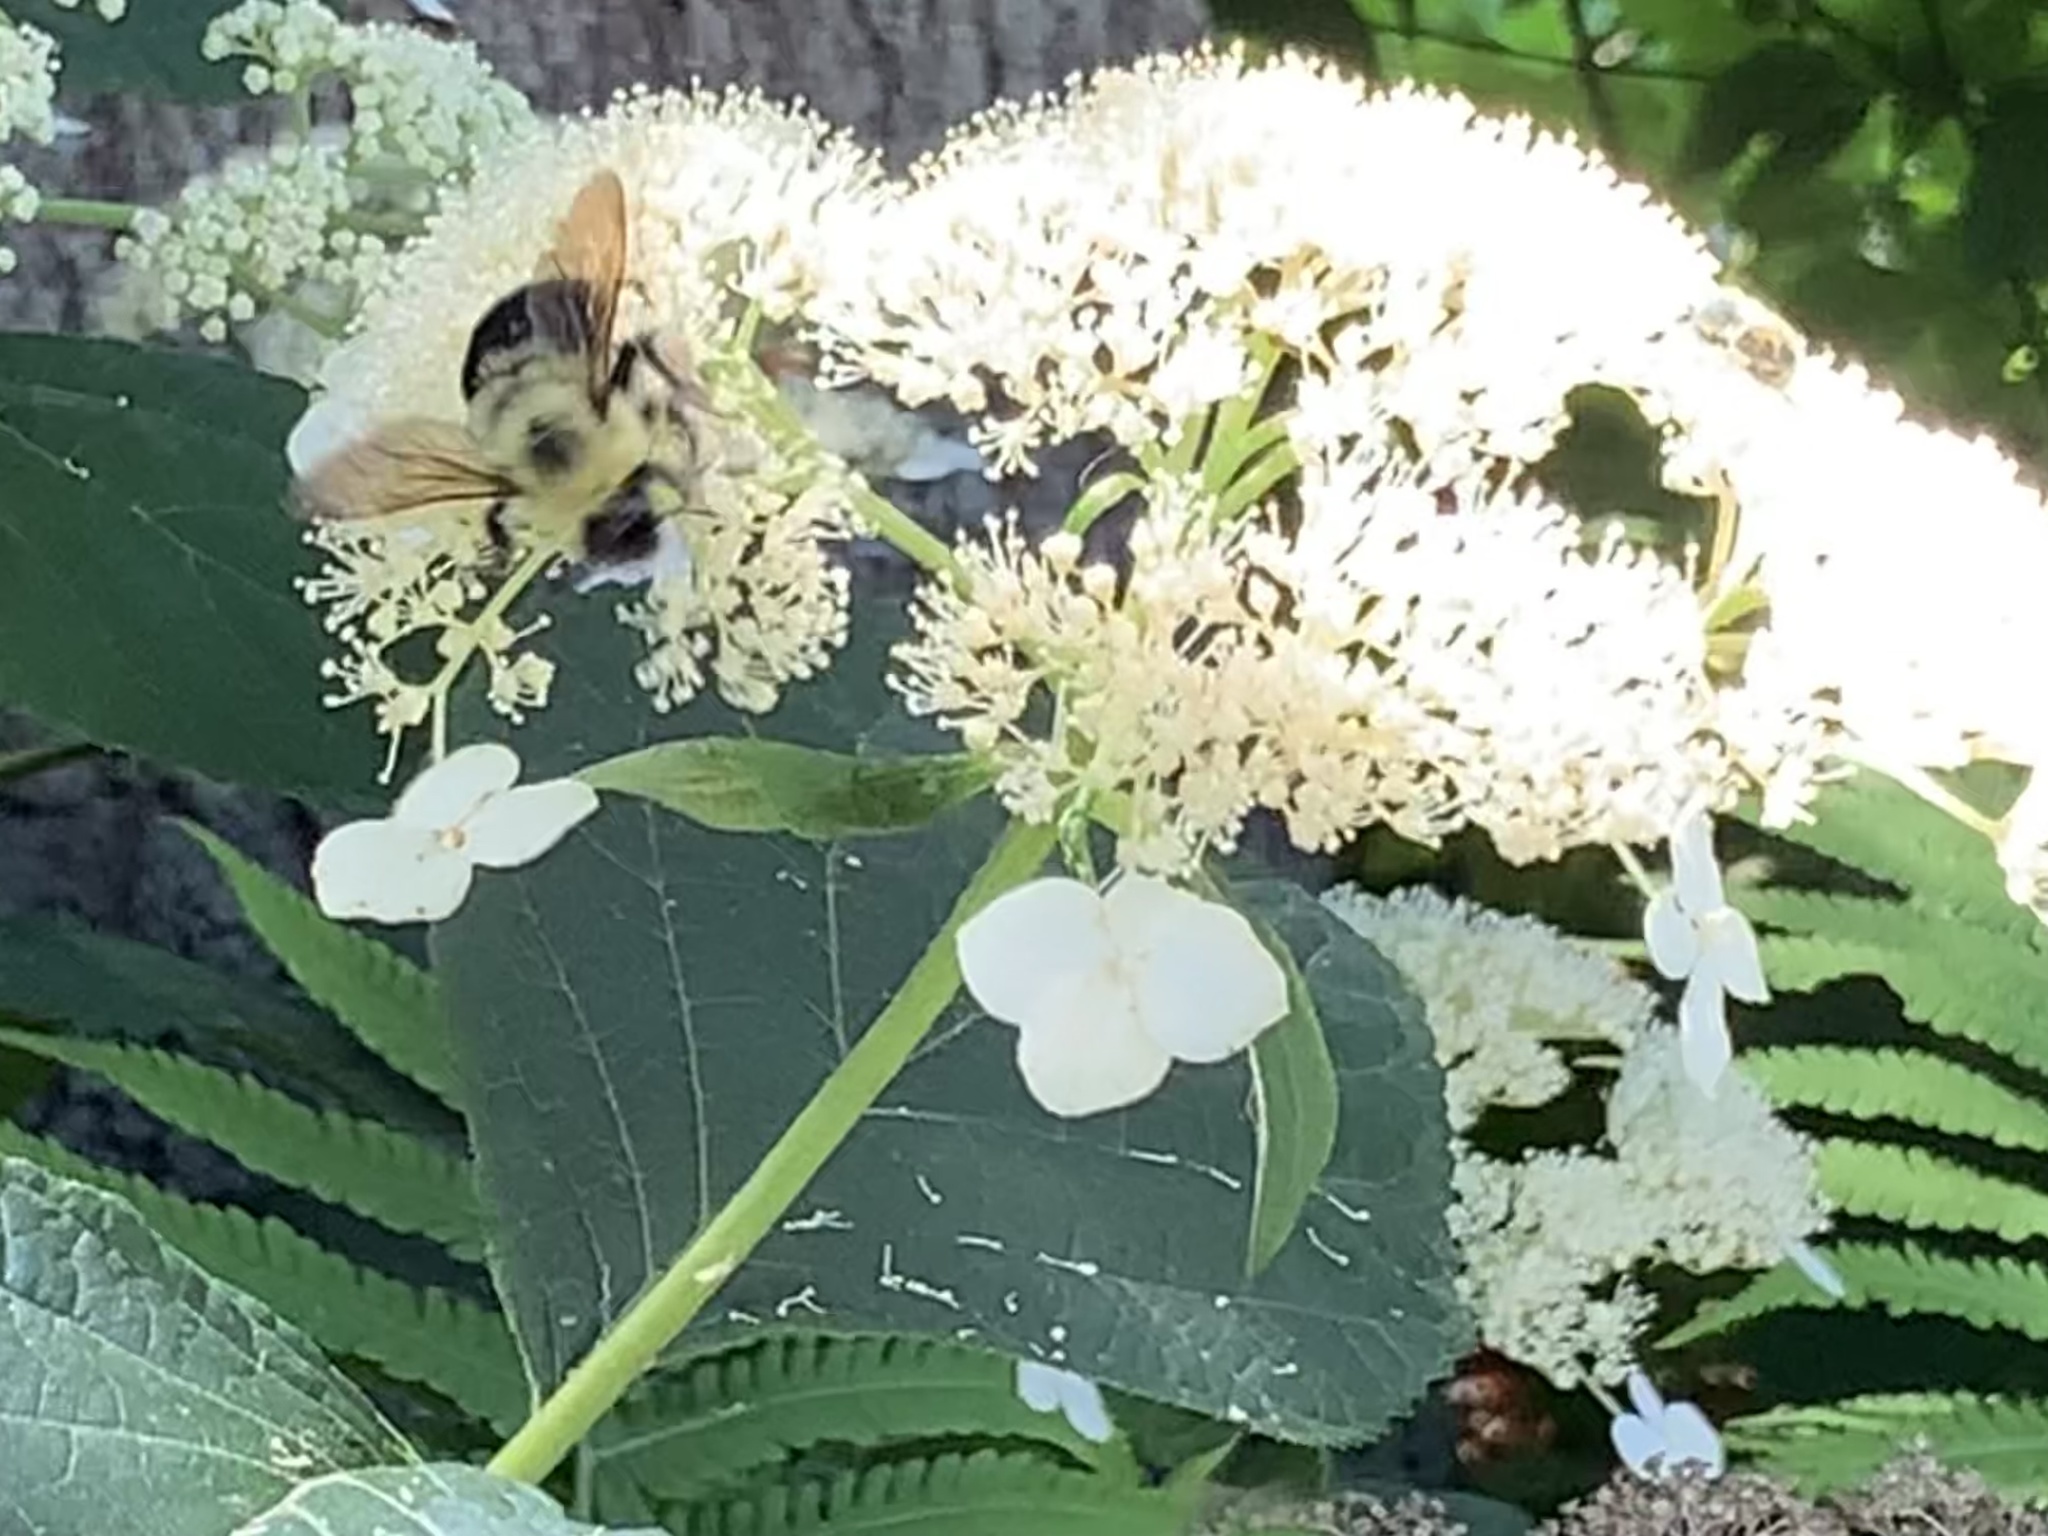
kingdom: Animalia
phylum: Arthropoda
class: Insecta
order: Hymenoptera
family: Apidae
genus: Bombus
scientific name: Bombus bimaculatus
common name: Two-spotted bumble bee
